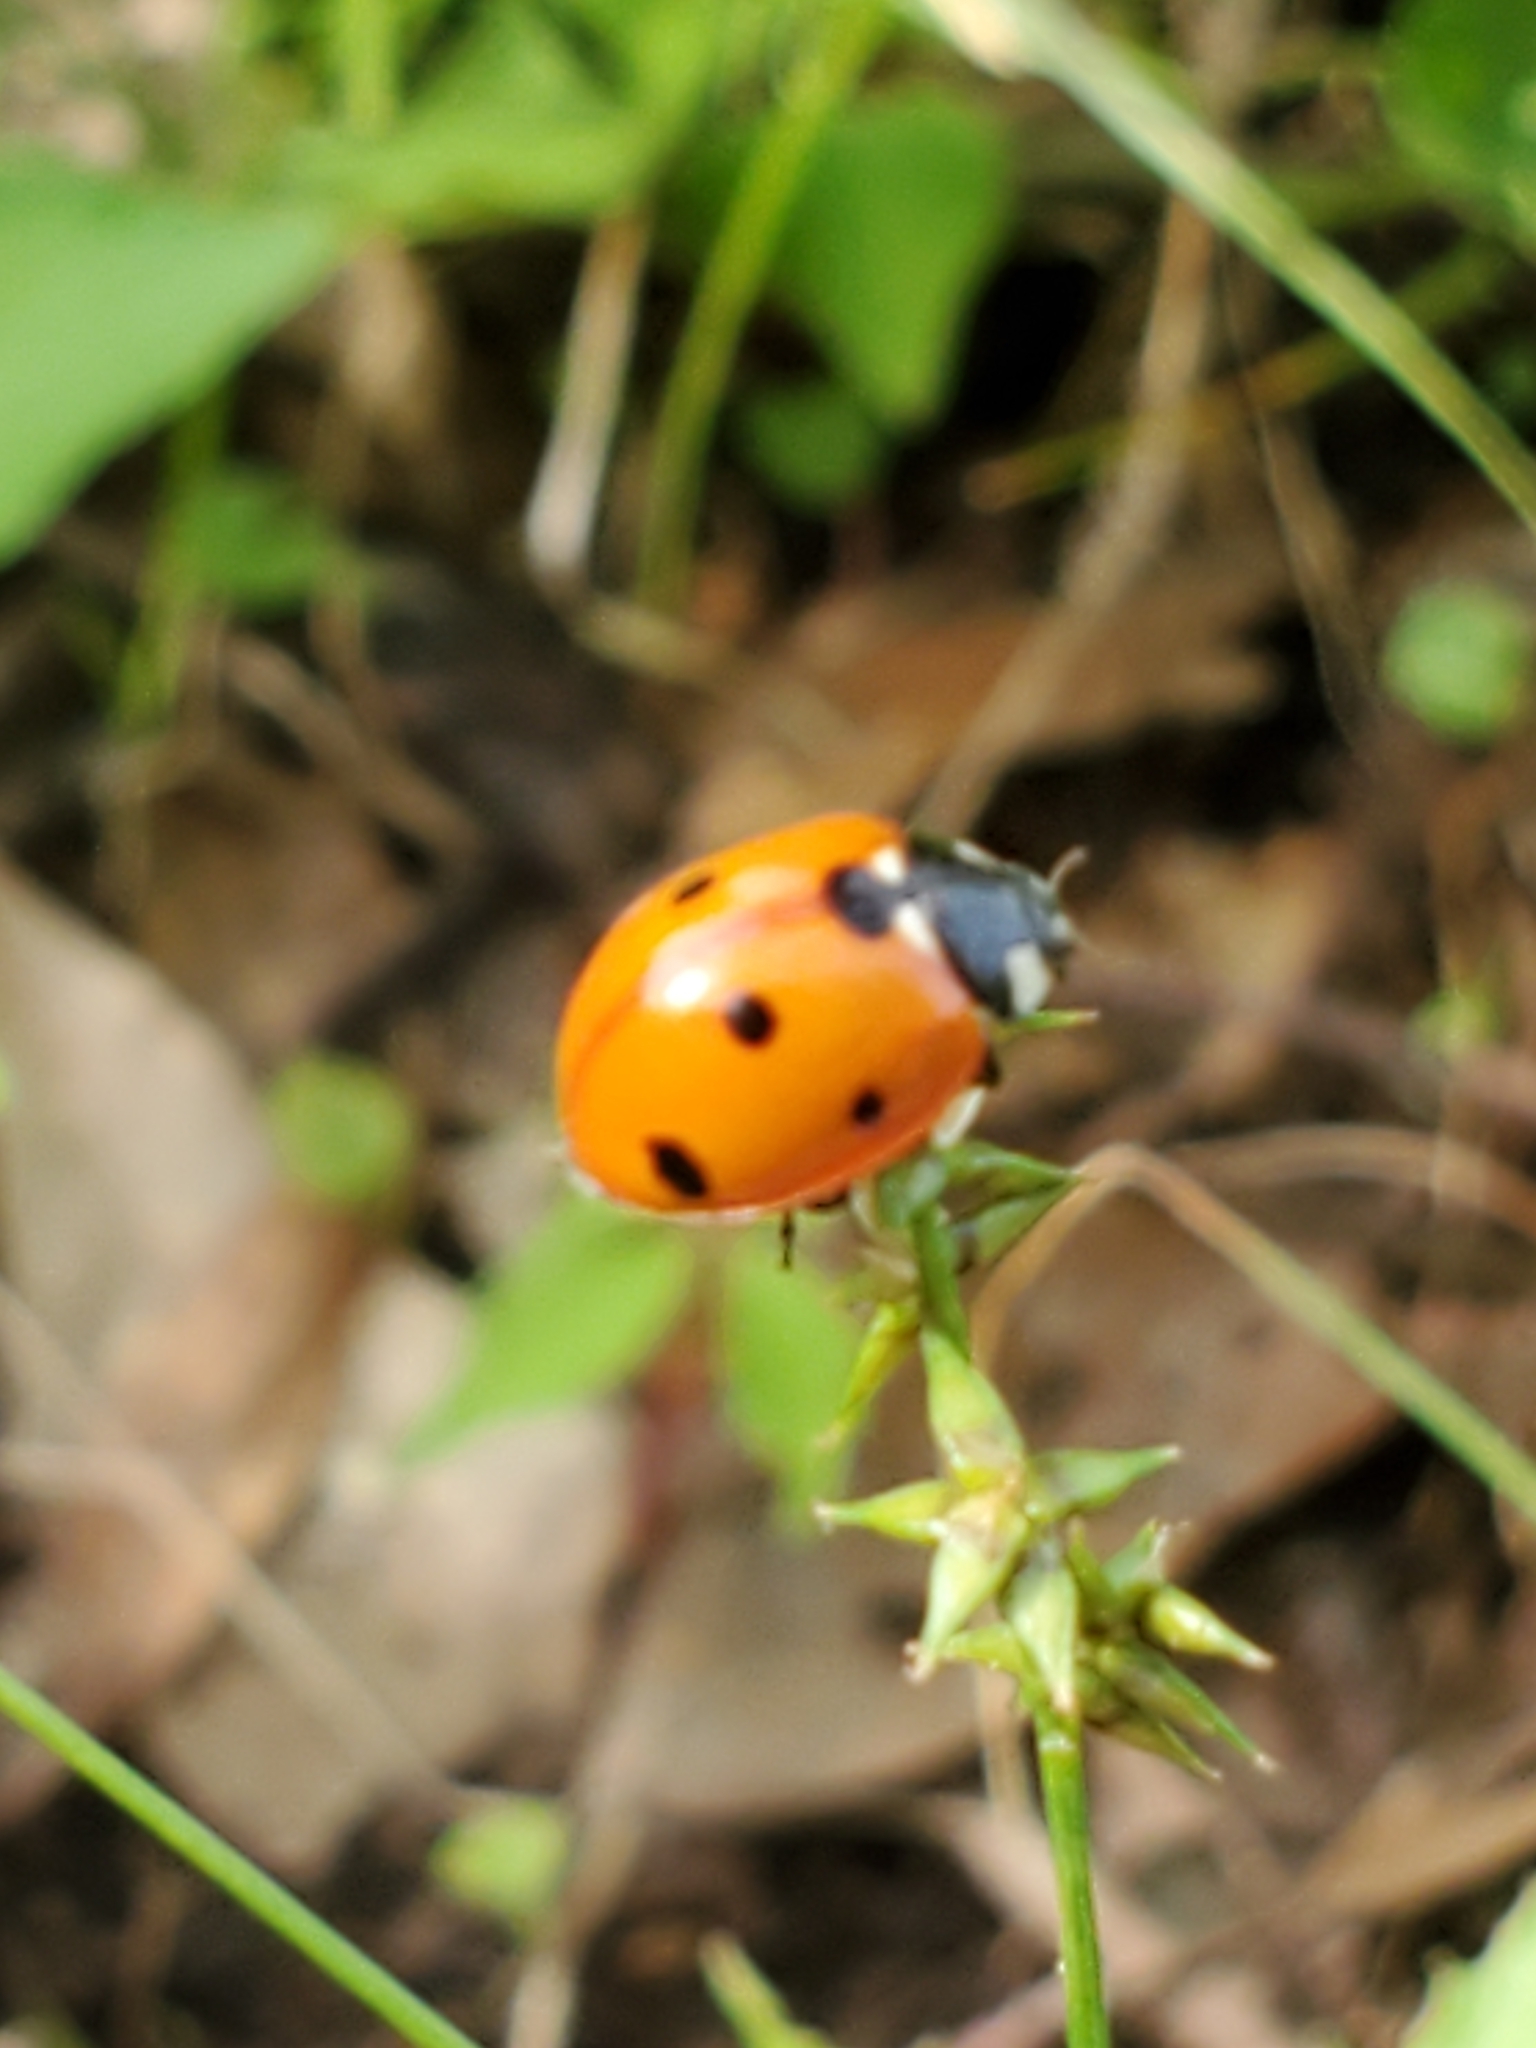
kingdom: Animalia
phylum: Arthropoda
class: Insecta
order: Coleoptera
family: Coccinellidae
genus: Coccinella
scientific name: Coccinella septempunctata
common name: Sevenspotted lady beetle
